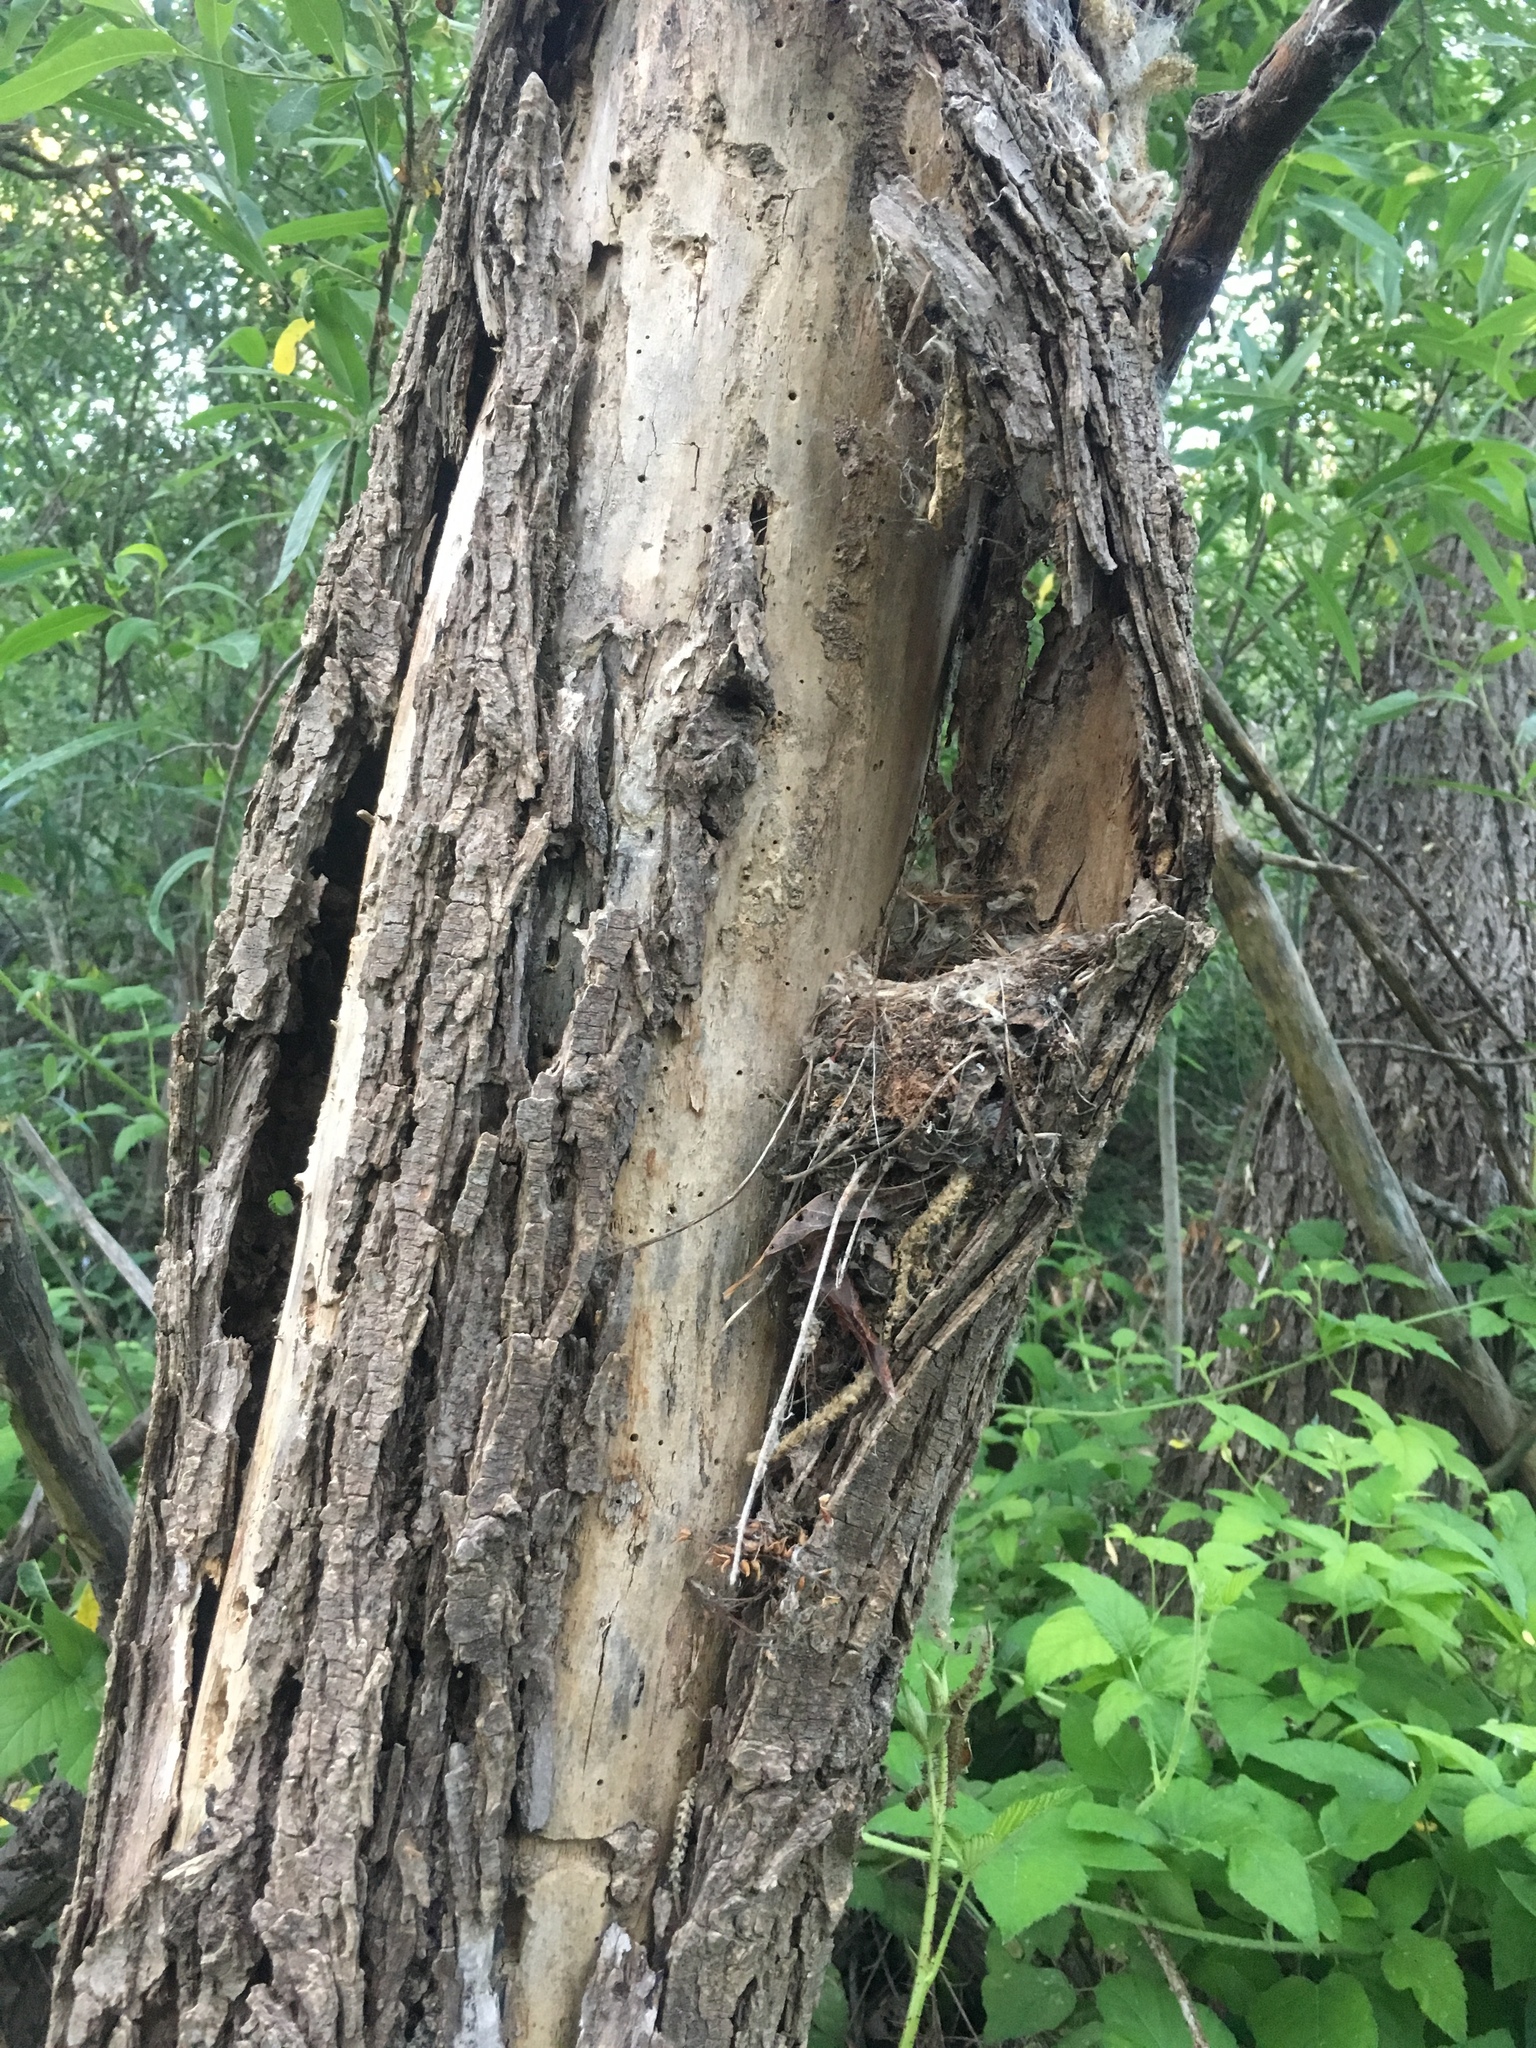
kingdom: Animalia
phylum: Chordata
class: Aves
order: Passeriformes
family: Tyrannidae
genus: Empidonax
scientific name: Empidonax difficilis
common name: Pacific-slope flycatcher
